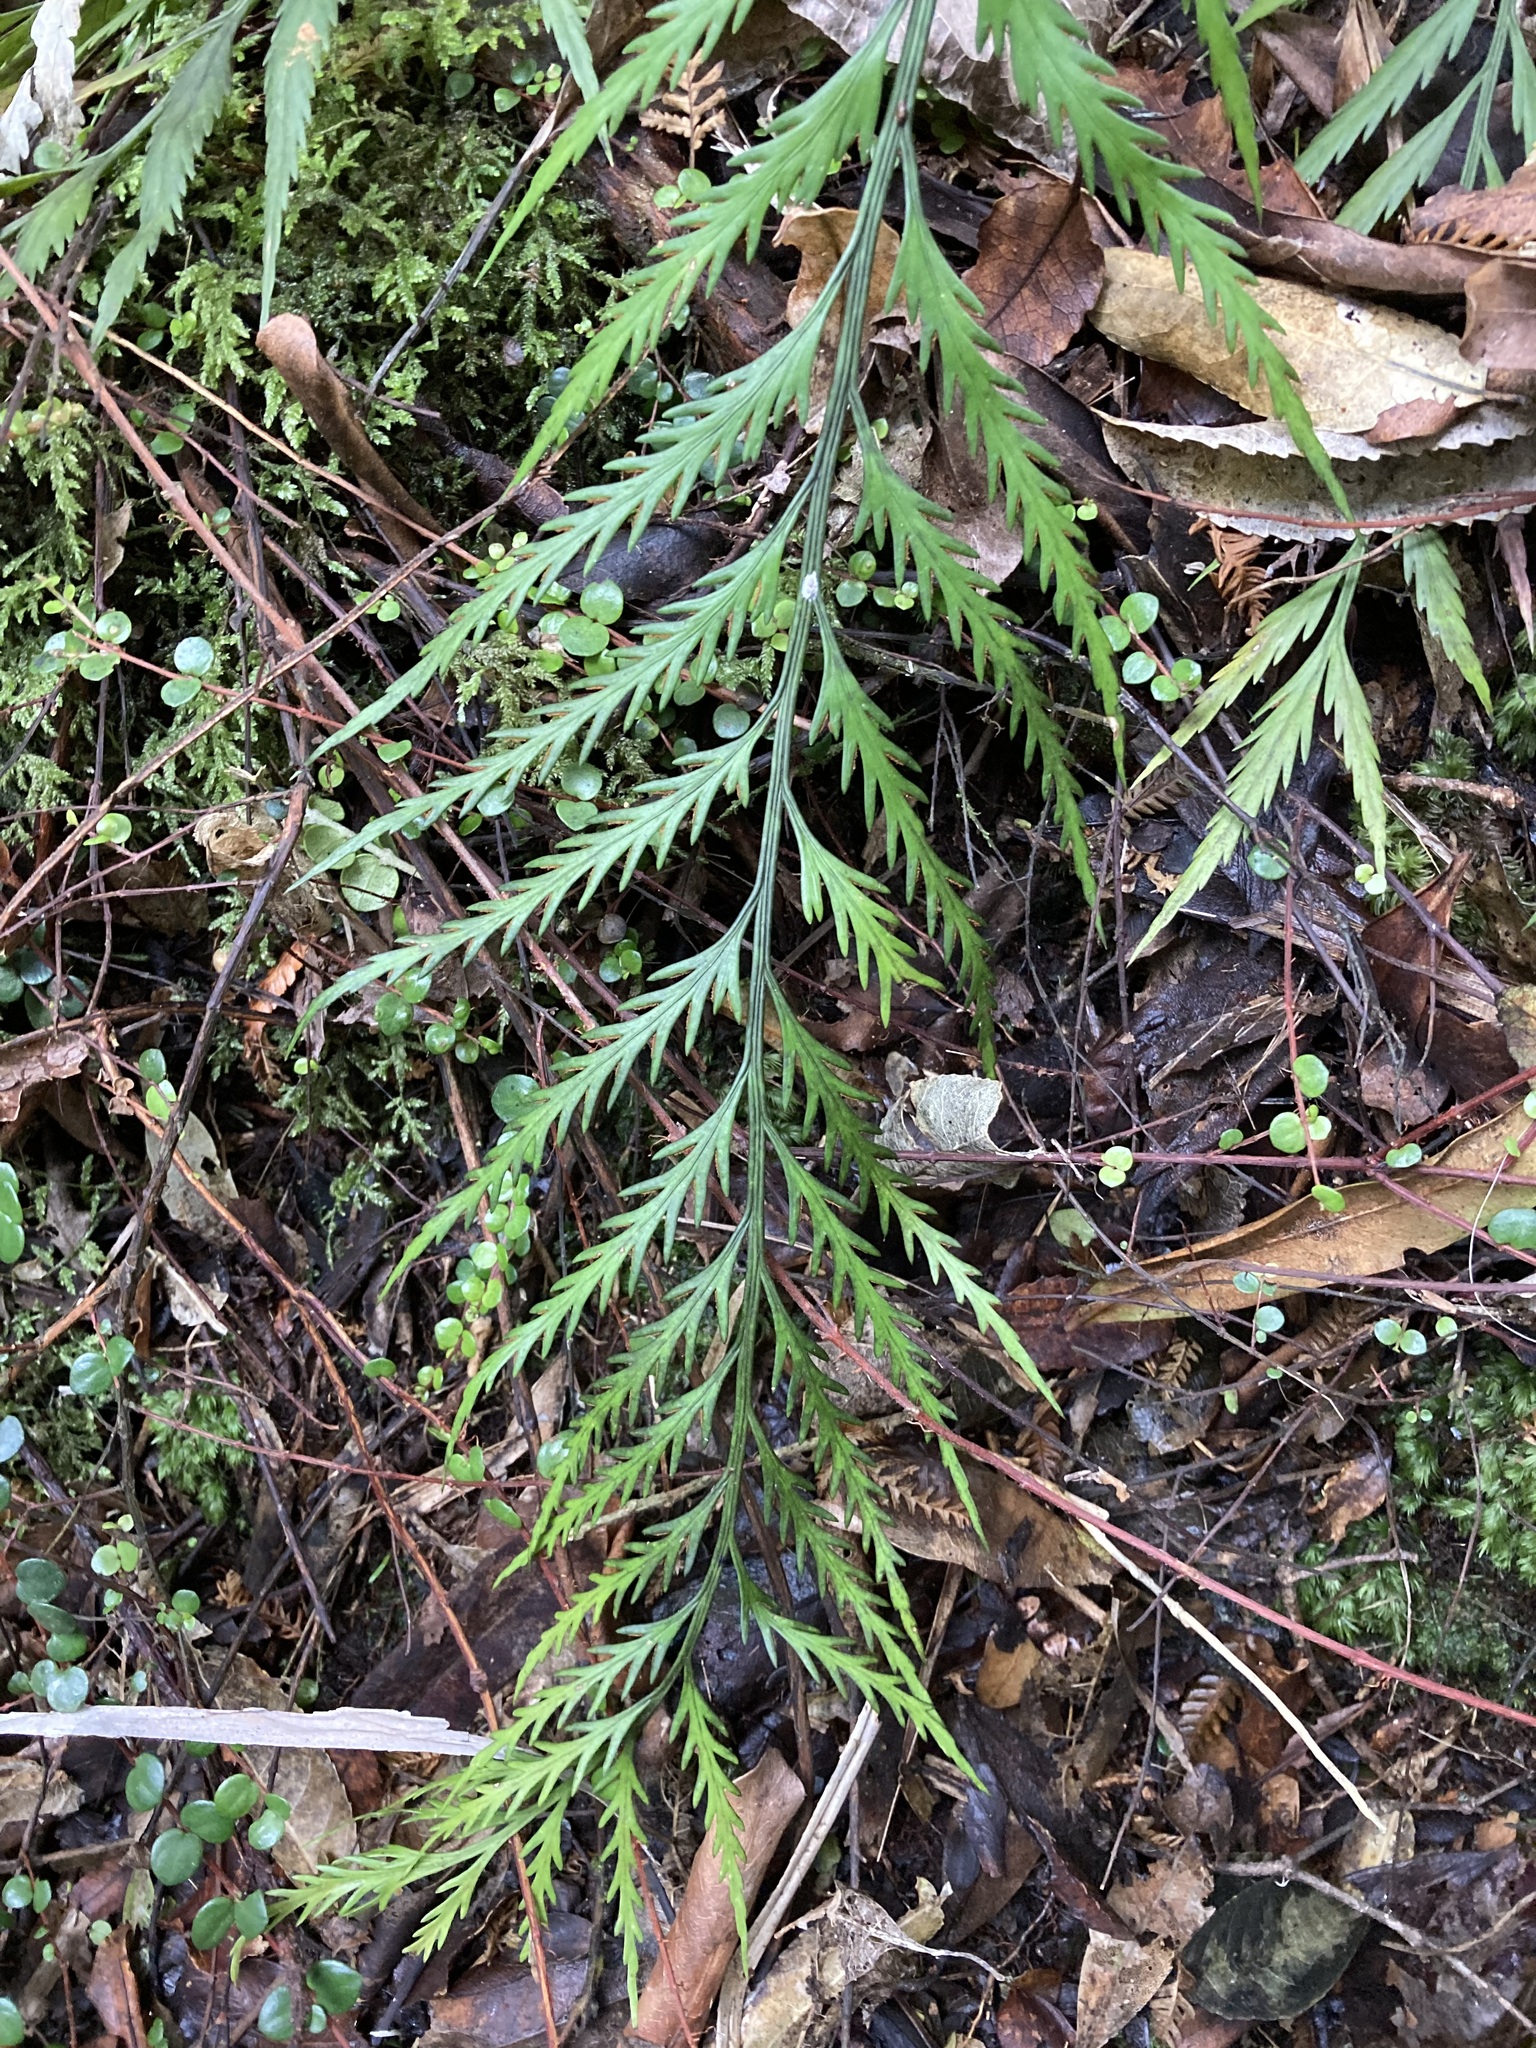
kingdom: Plantae
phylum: Tracheophyta
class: Polypodiopsida
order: Polypodiales
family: Aspleniaceae
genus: Asplenium
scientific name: Asplenium flaccidum
